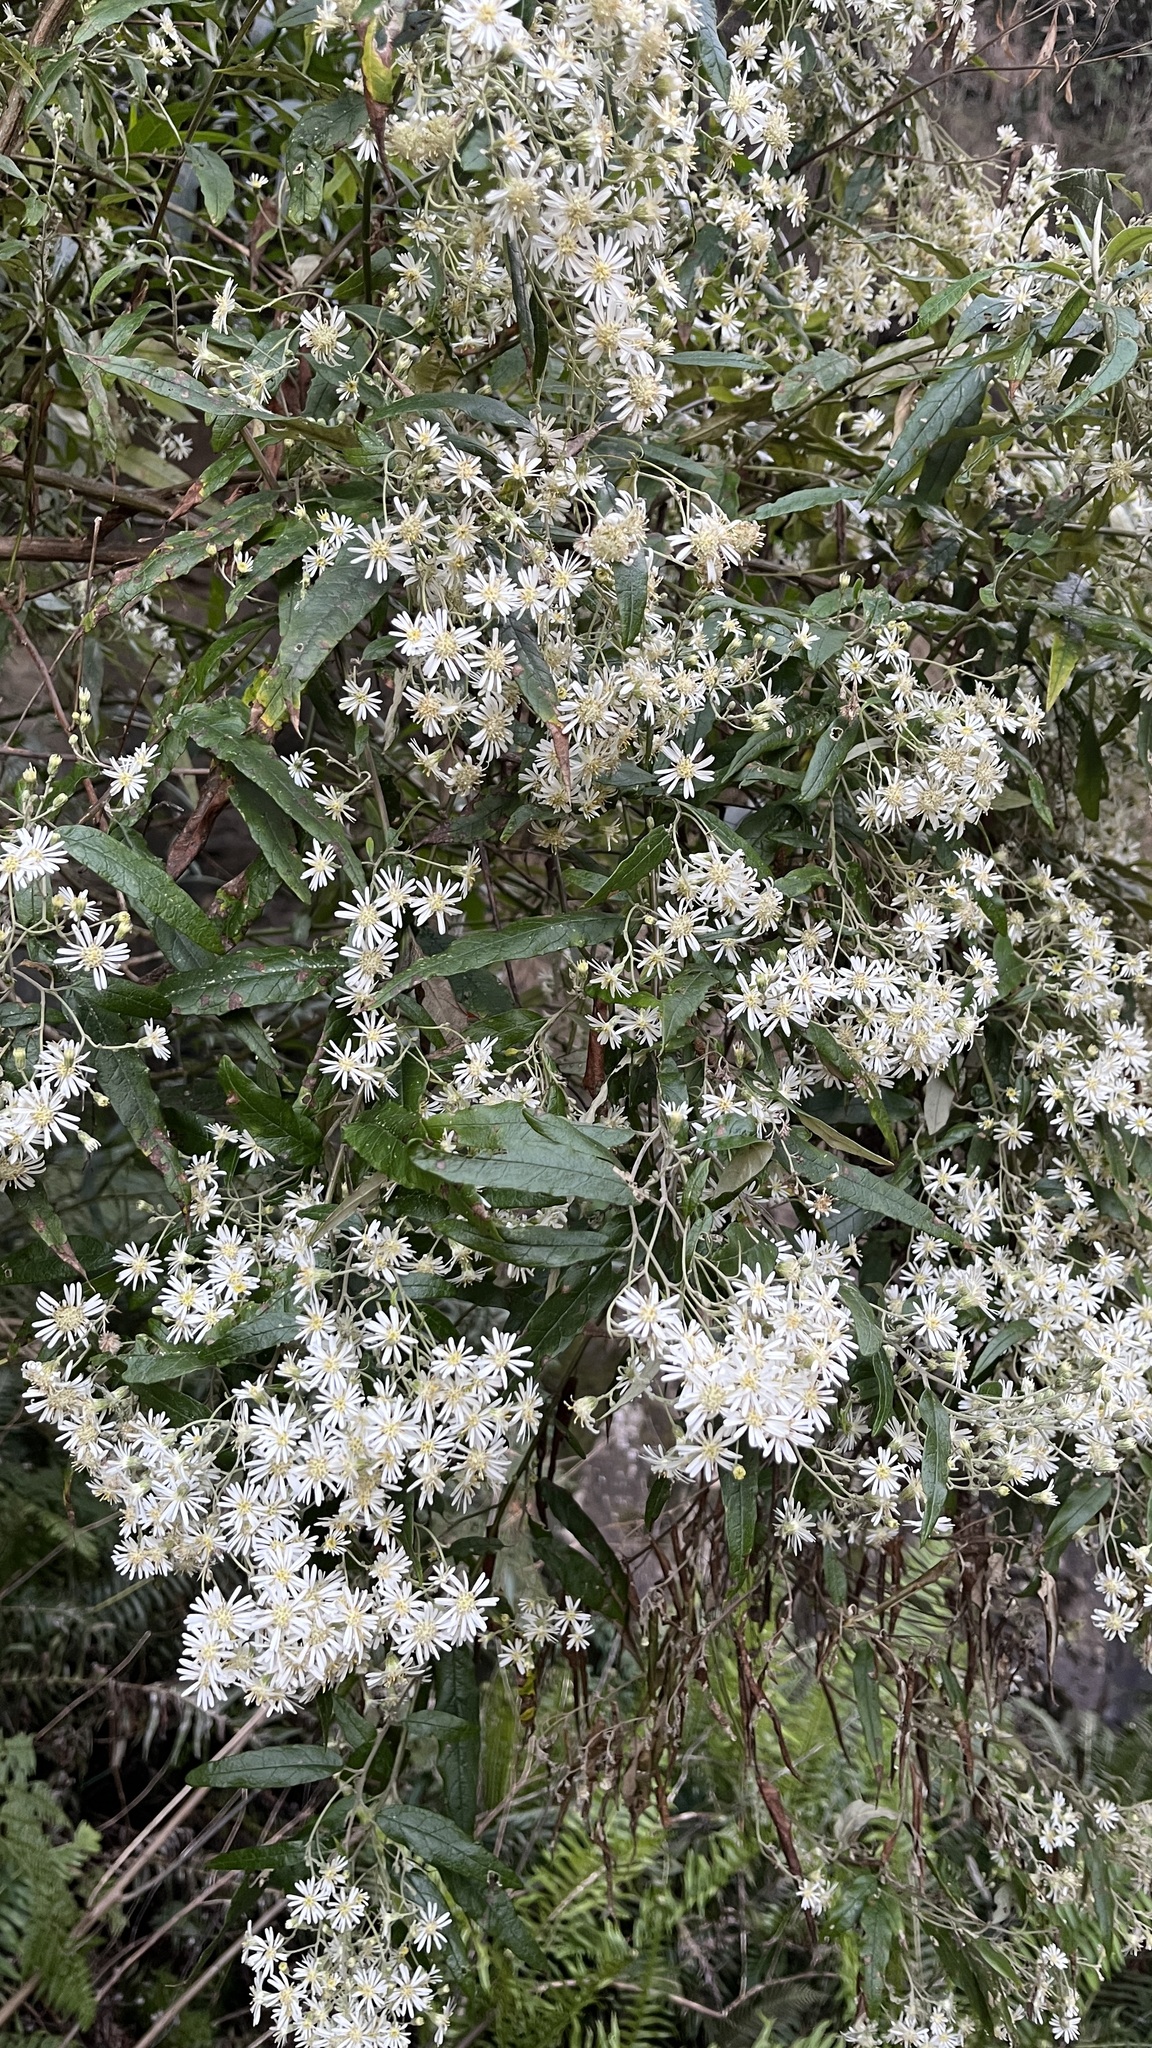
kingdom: Plantae
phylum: Tracheophyta
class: Magnoliopsida
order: Asterales
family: Asteraceae
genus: Olearia
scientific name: Olearia lirata
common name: Dusty daisybush
